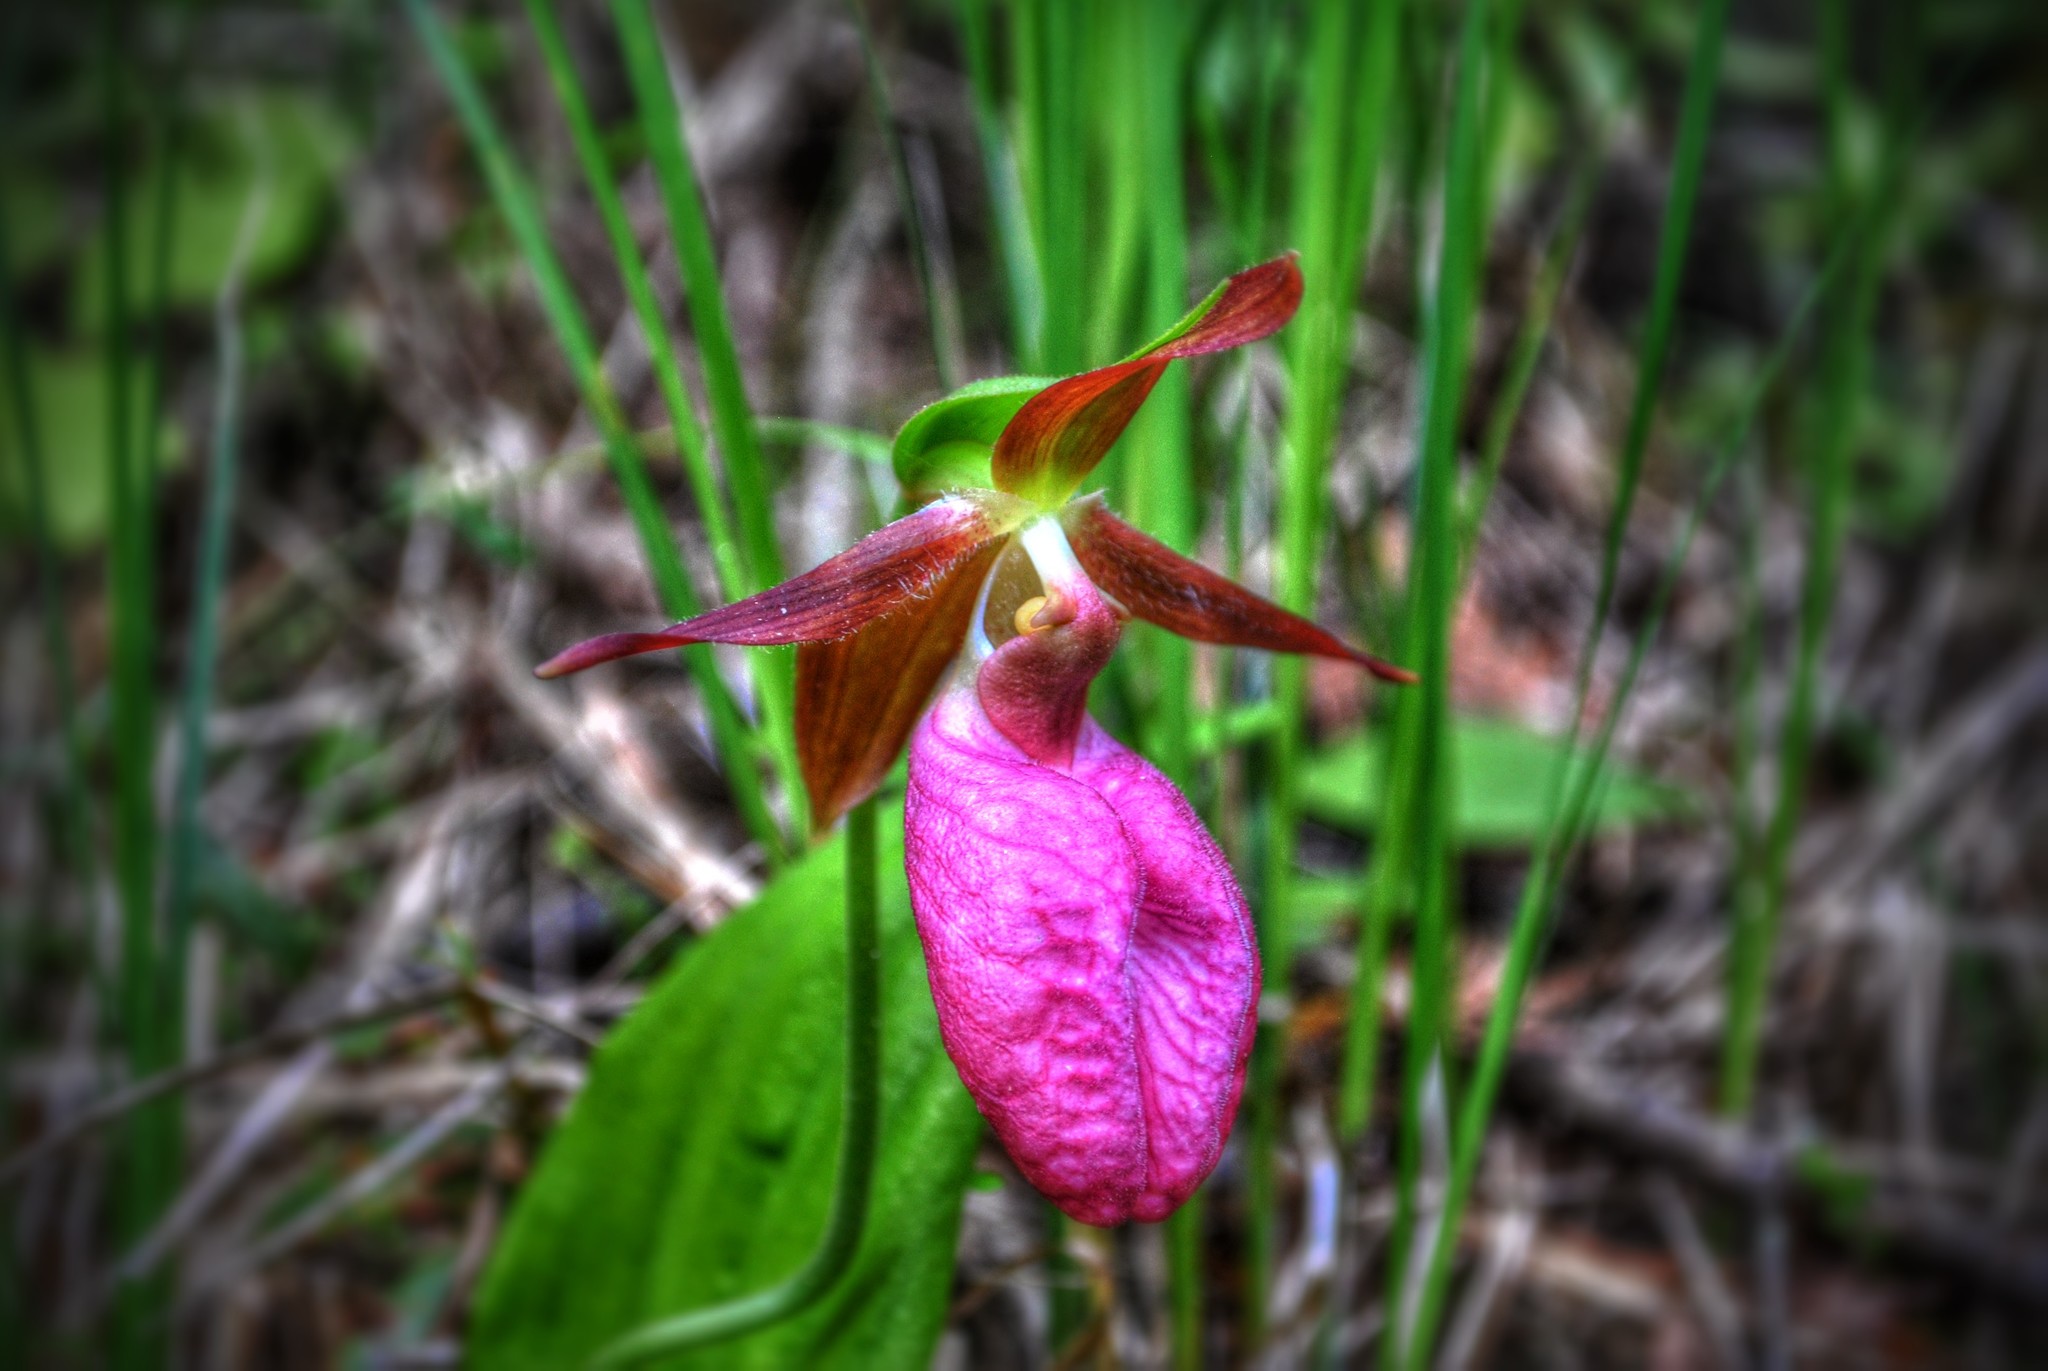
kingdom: Plantae
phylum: Tracheophyta
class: Liliopsida
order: Asparagales
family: Orchidaceae
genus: Cypripedium
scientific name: Cypripedium acaule
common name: Pink lady's-slipper
